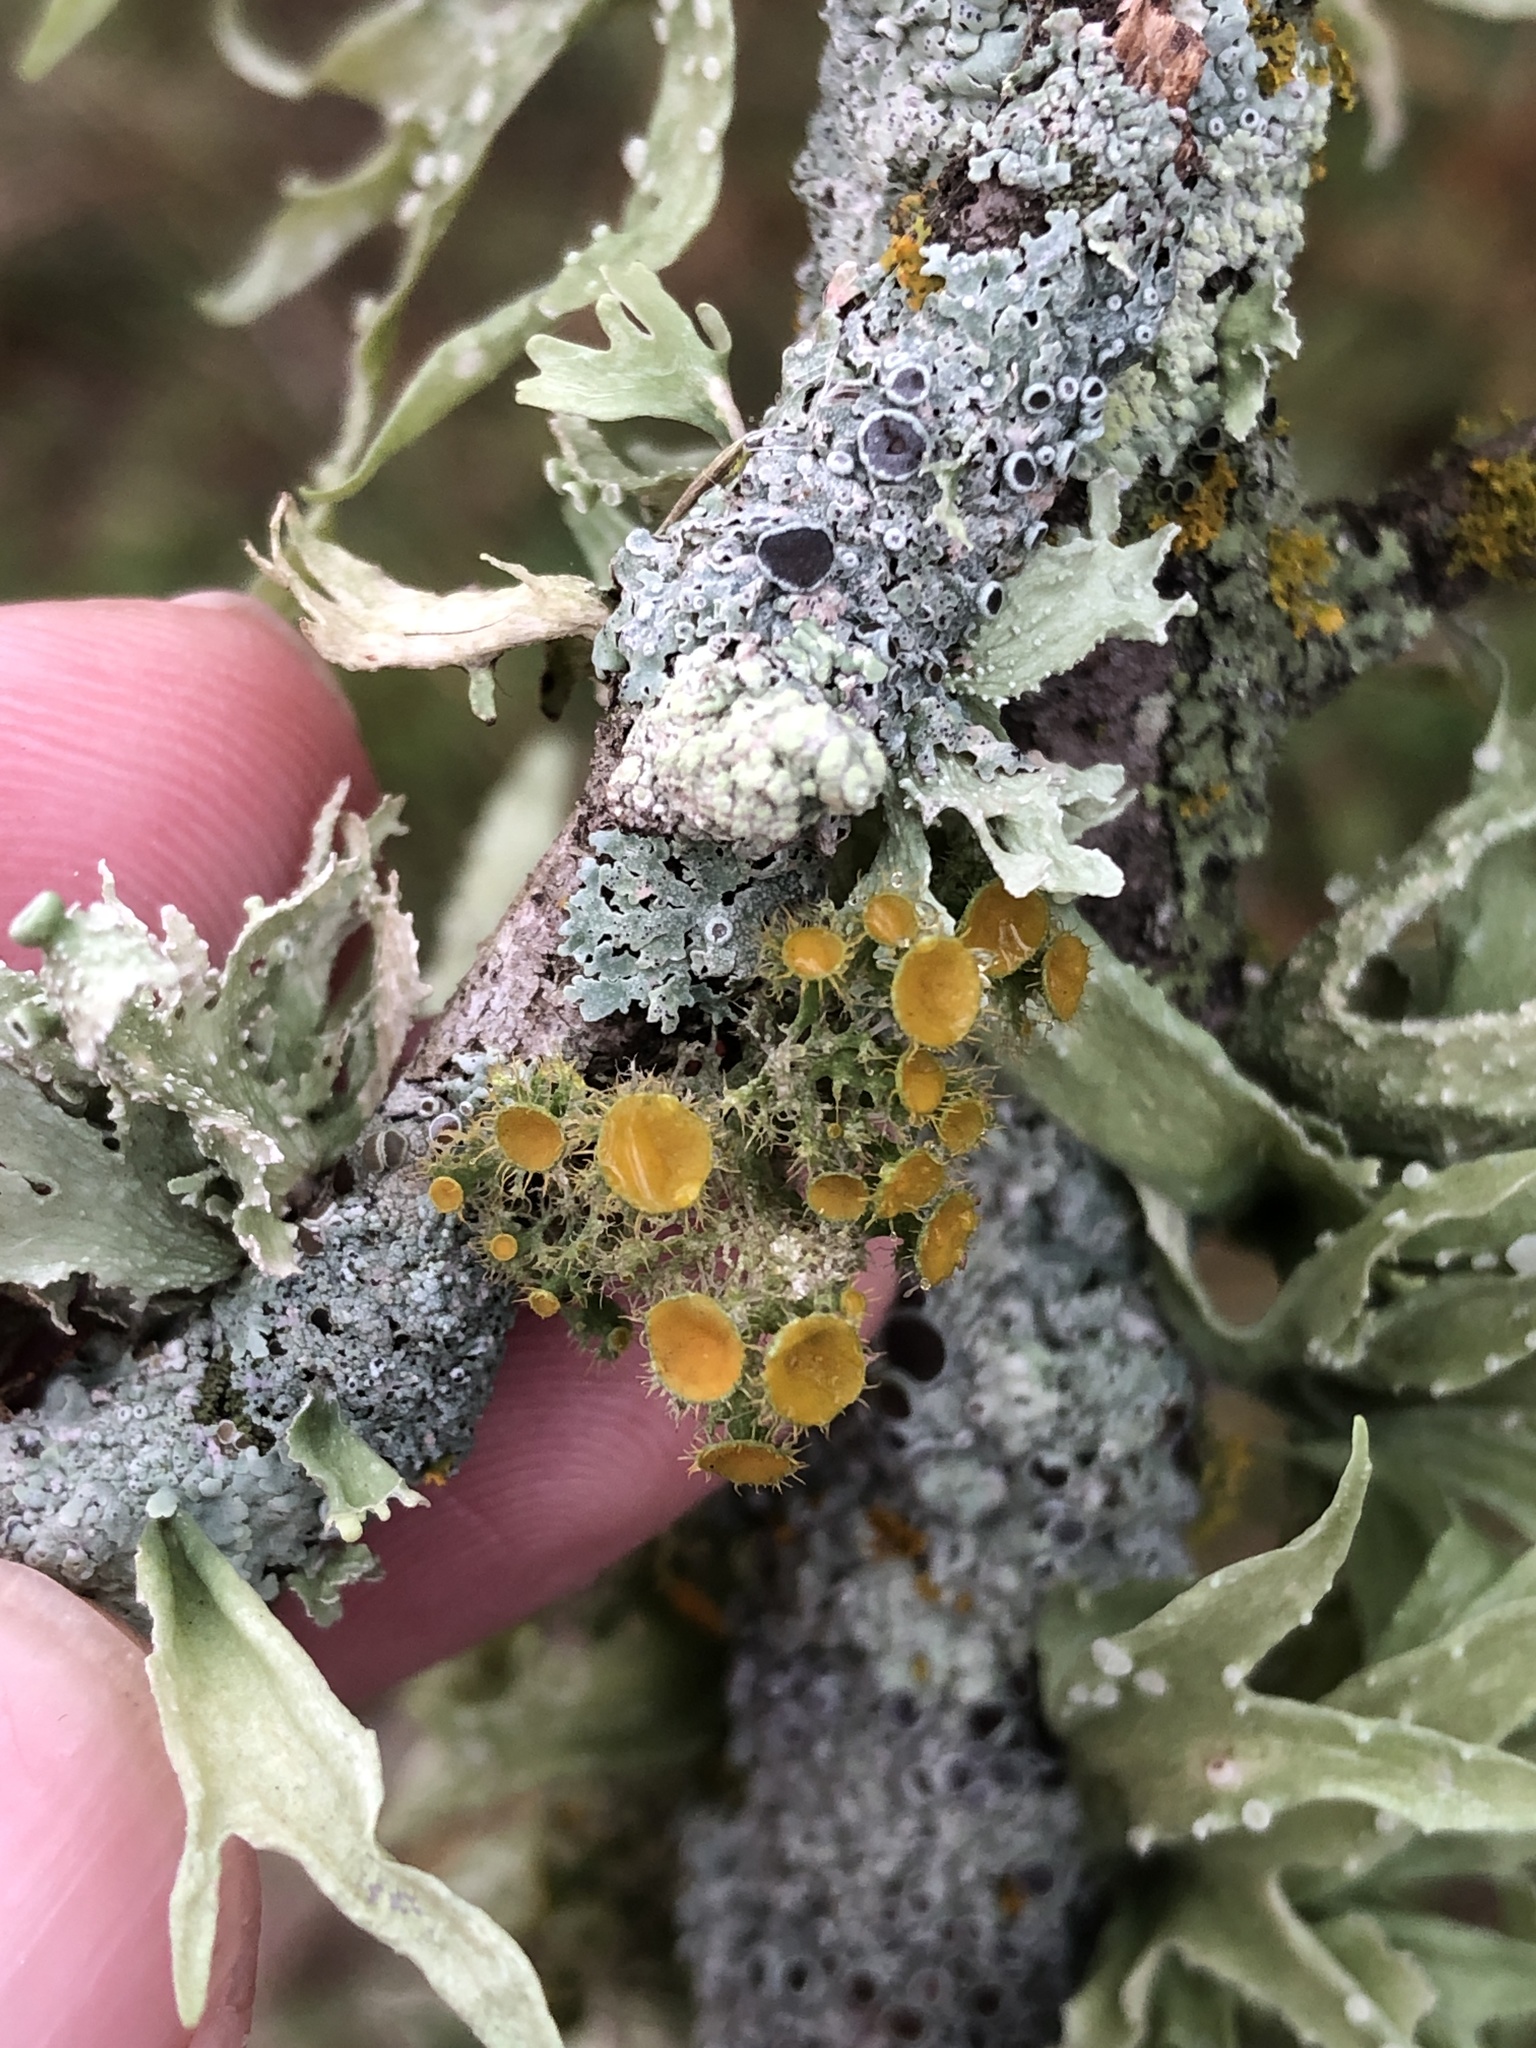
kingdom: Fungi
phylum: Ascomycota
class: Lecanoromycetes
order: Teloschistales
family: Teloschistaceae
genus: Niorma
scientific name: Niorma chrysophthalma
